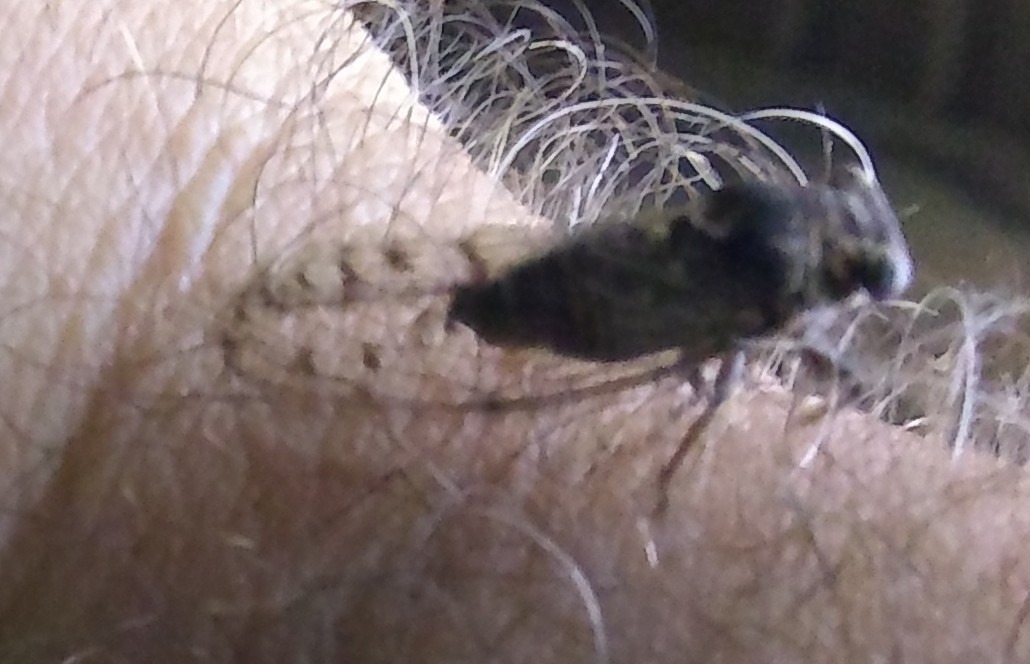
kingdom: Animalia
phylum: Arthropoda
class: Insecta
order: Hemiptera
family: Cicadidae
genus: Pacarina
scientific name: Pacarina puella
